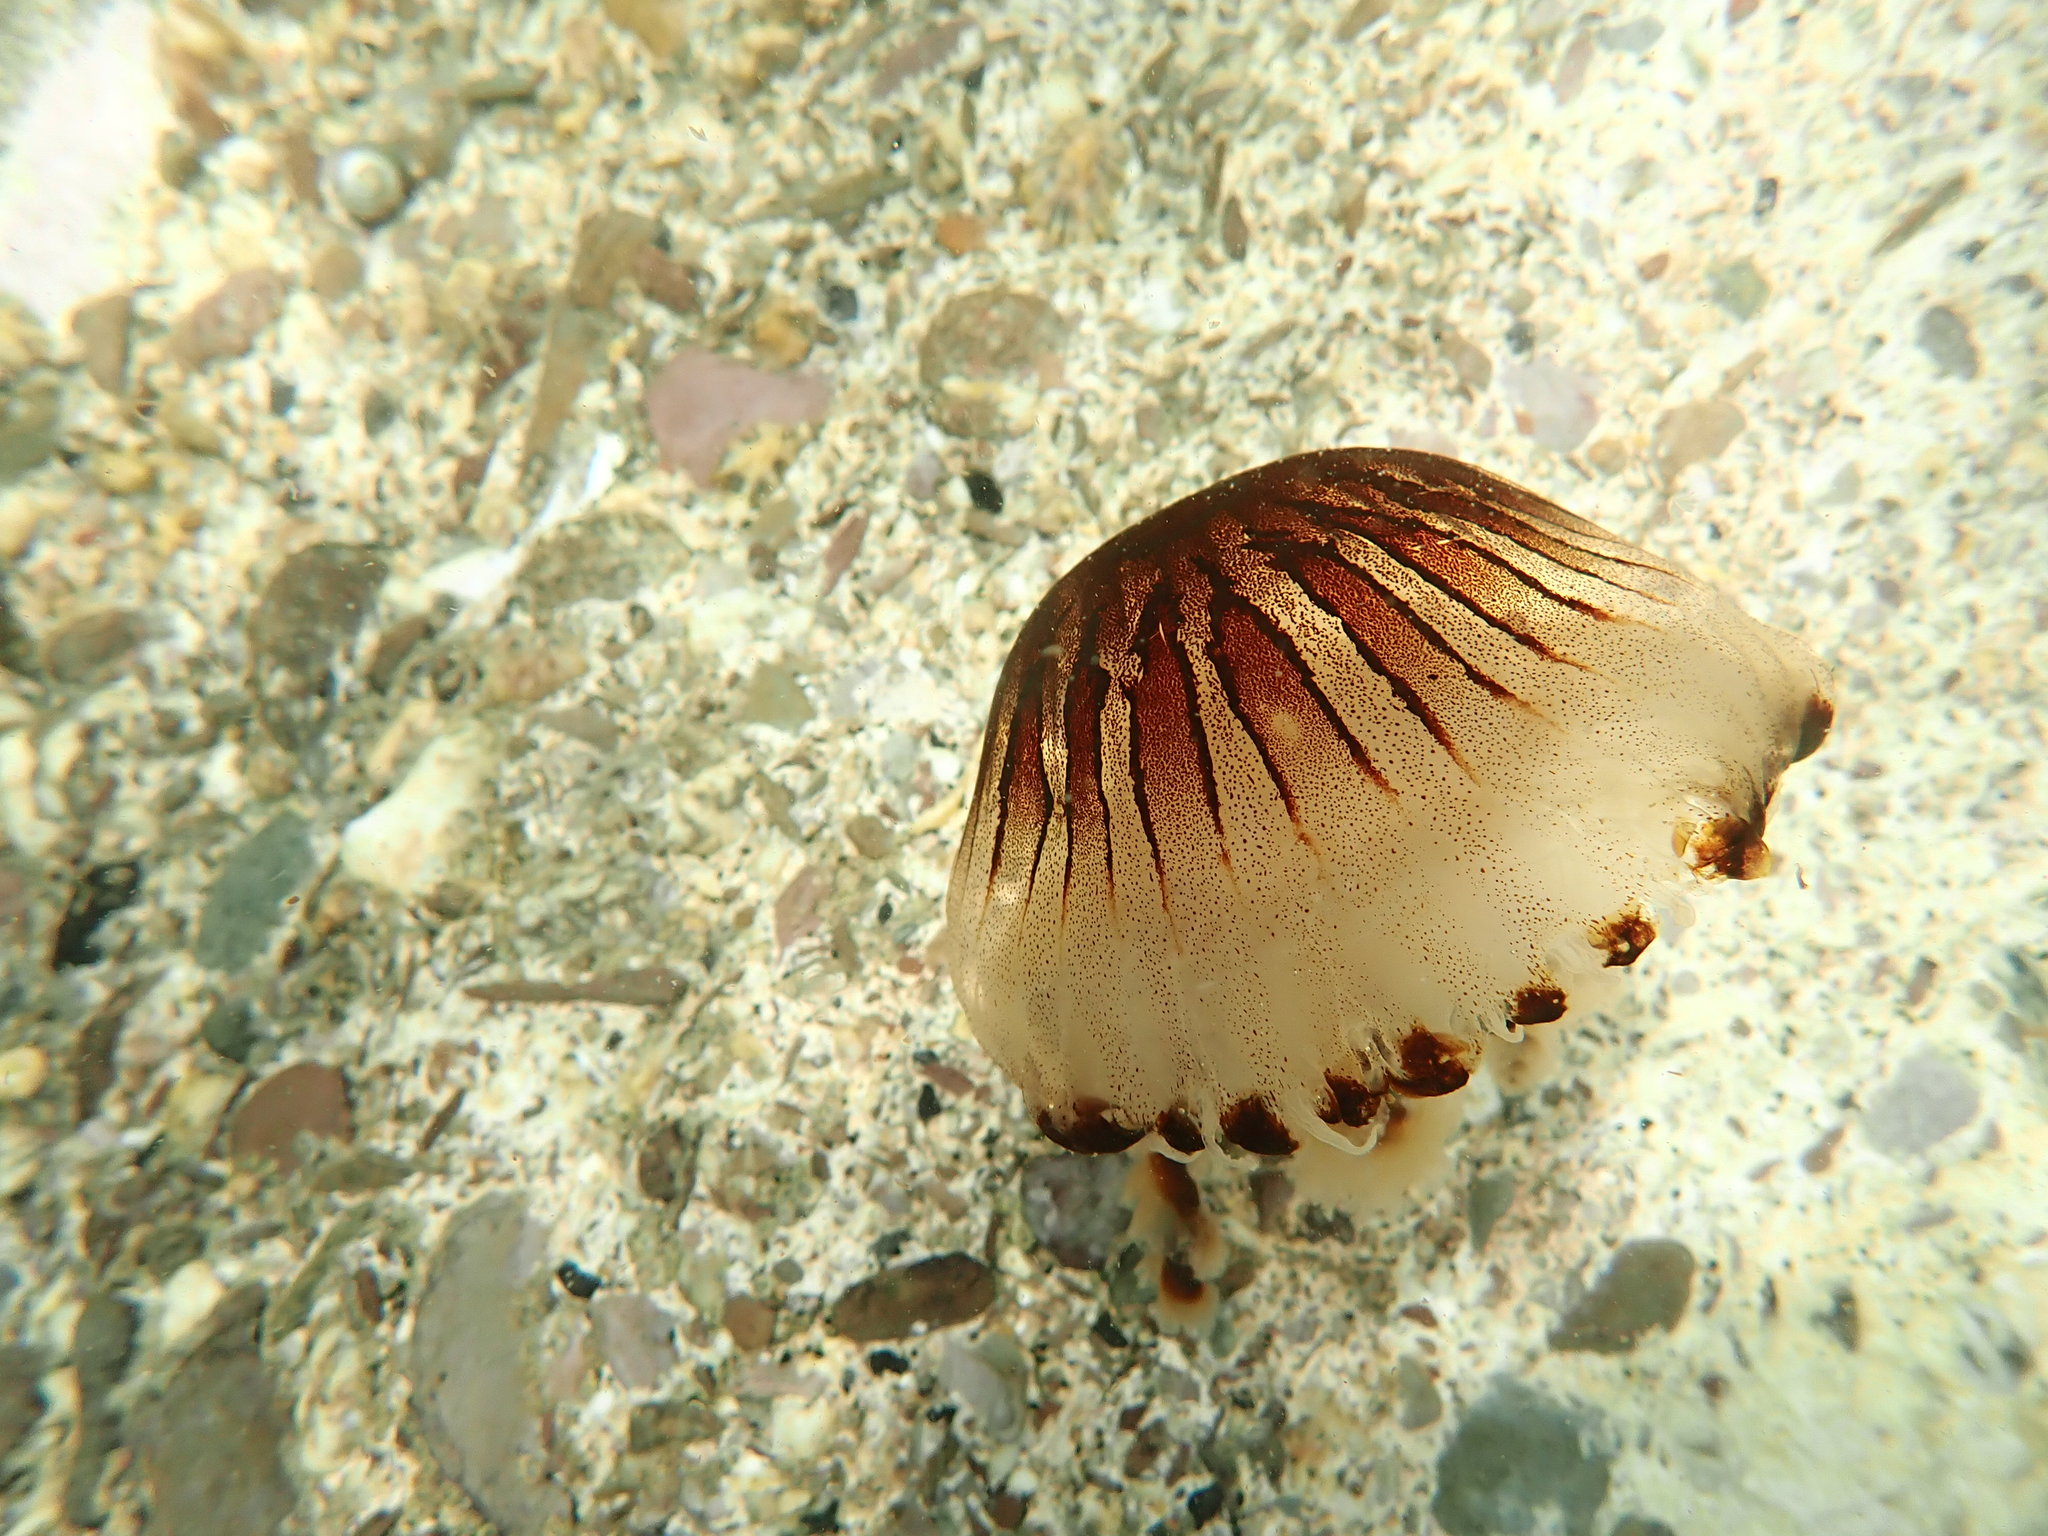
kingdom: Animalia
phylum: Cnidaria
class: Scyphozoa
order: Semaeostomeae
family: Pelagiidae
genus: Chrysaora
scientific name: Chrysaora hysoscella
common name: Compass jellyfish
